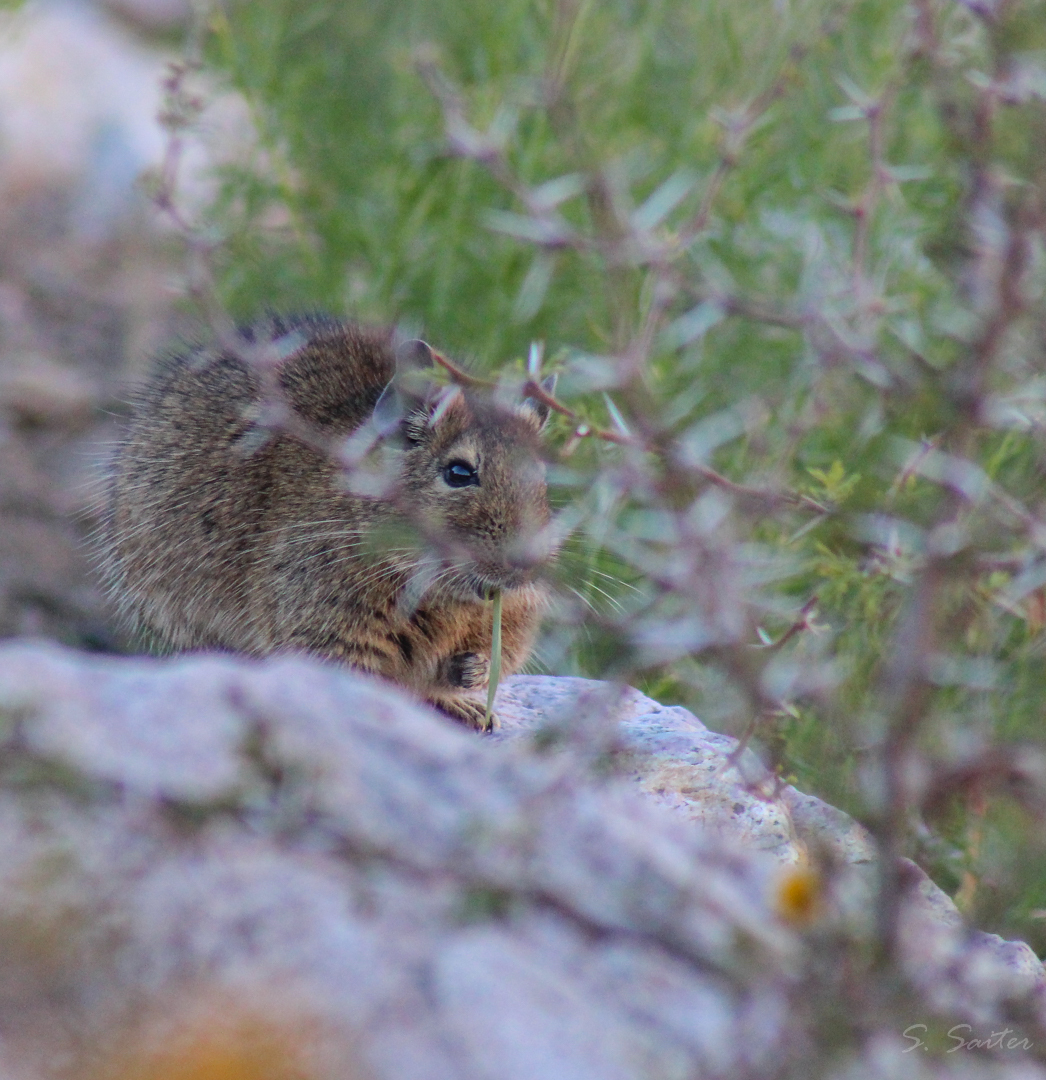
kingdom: Animalia
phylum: Chordata
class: Mammalia
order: Rodentia
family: Octodontidae
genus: Octodon
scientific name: Octodon degus
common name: Degu
